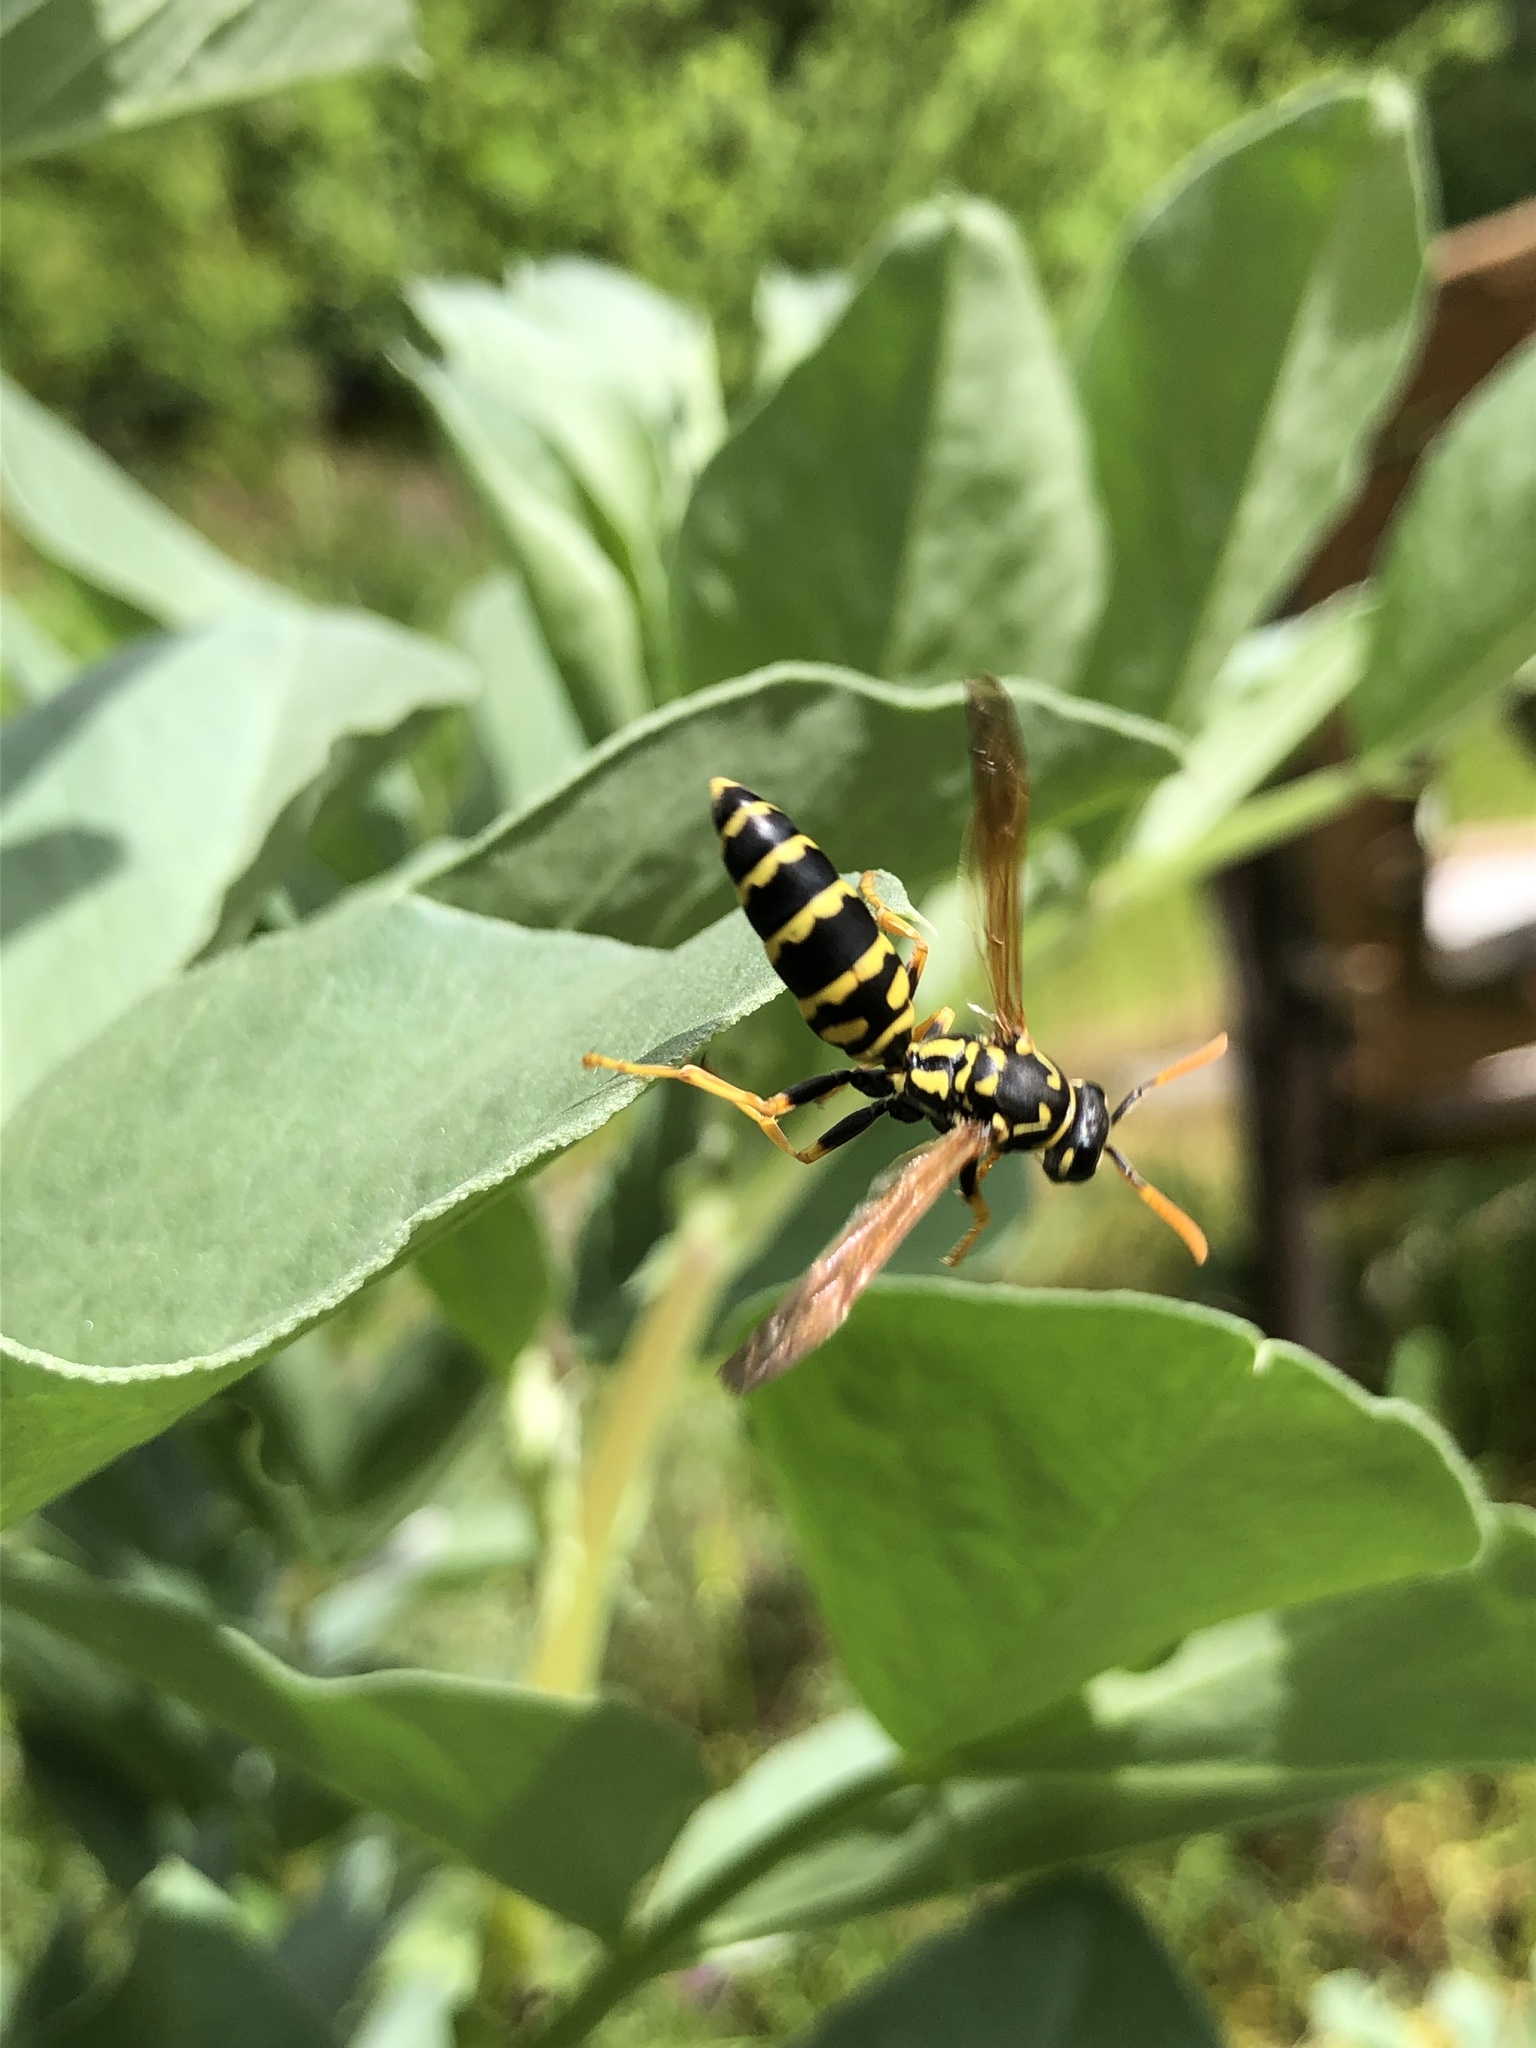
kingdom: Animalia
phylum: Arthropoda
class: Insecta
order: Hymenoptera
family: Eumenidae
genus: Polistes
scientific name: Polistes dominula
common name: Paper wasp
